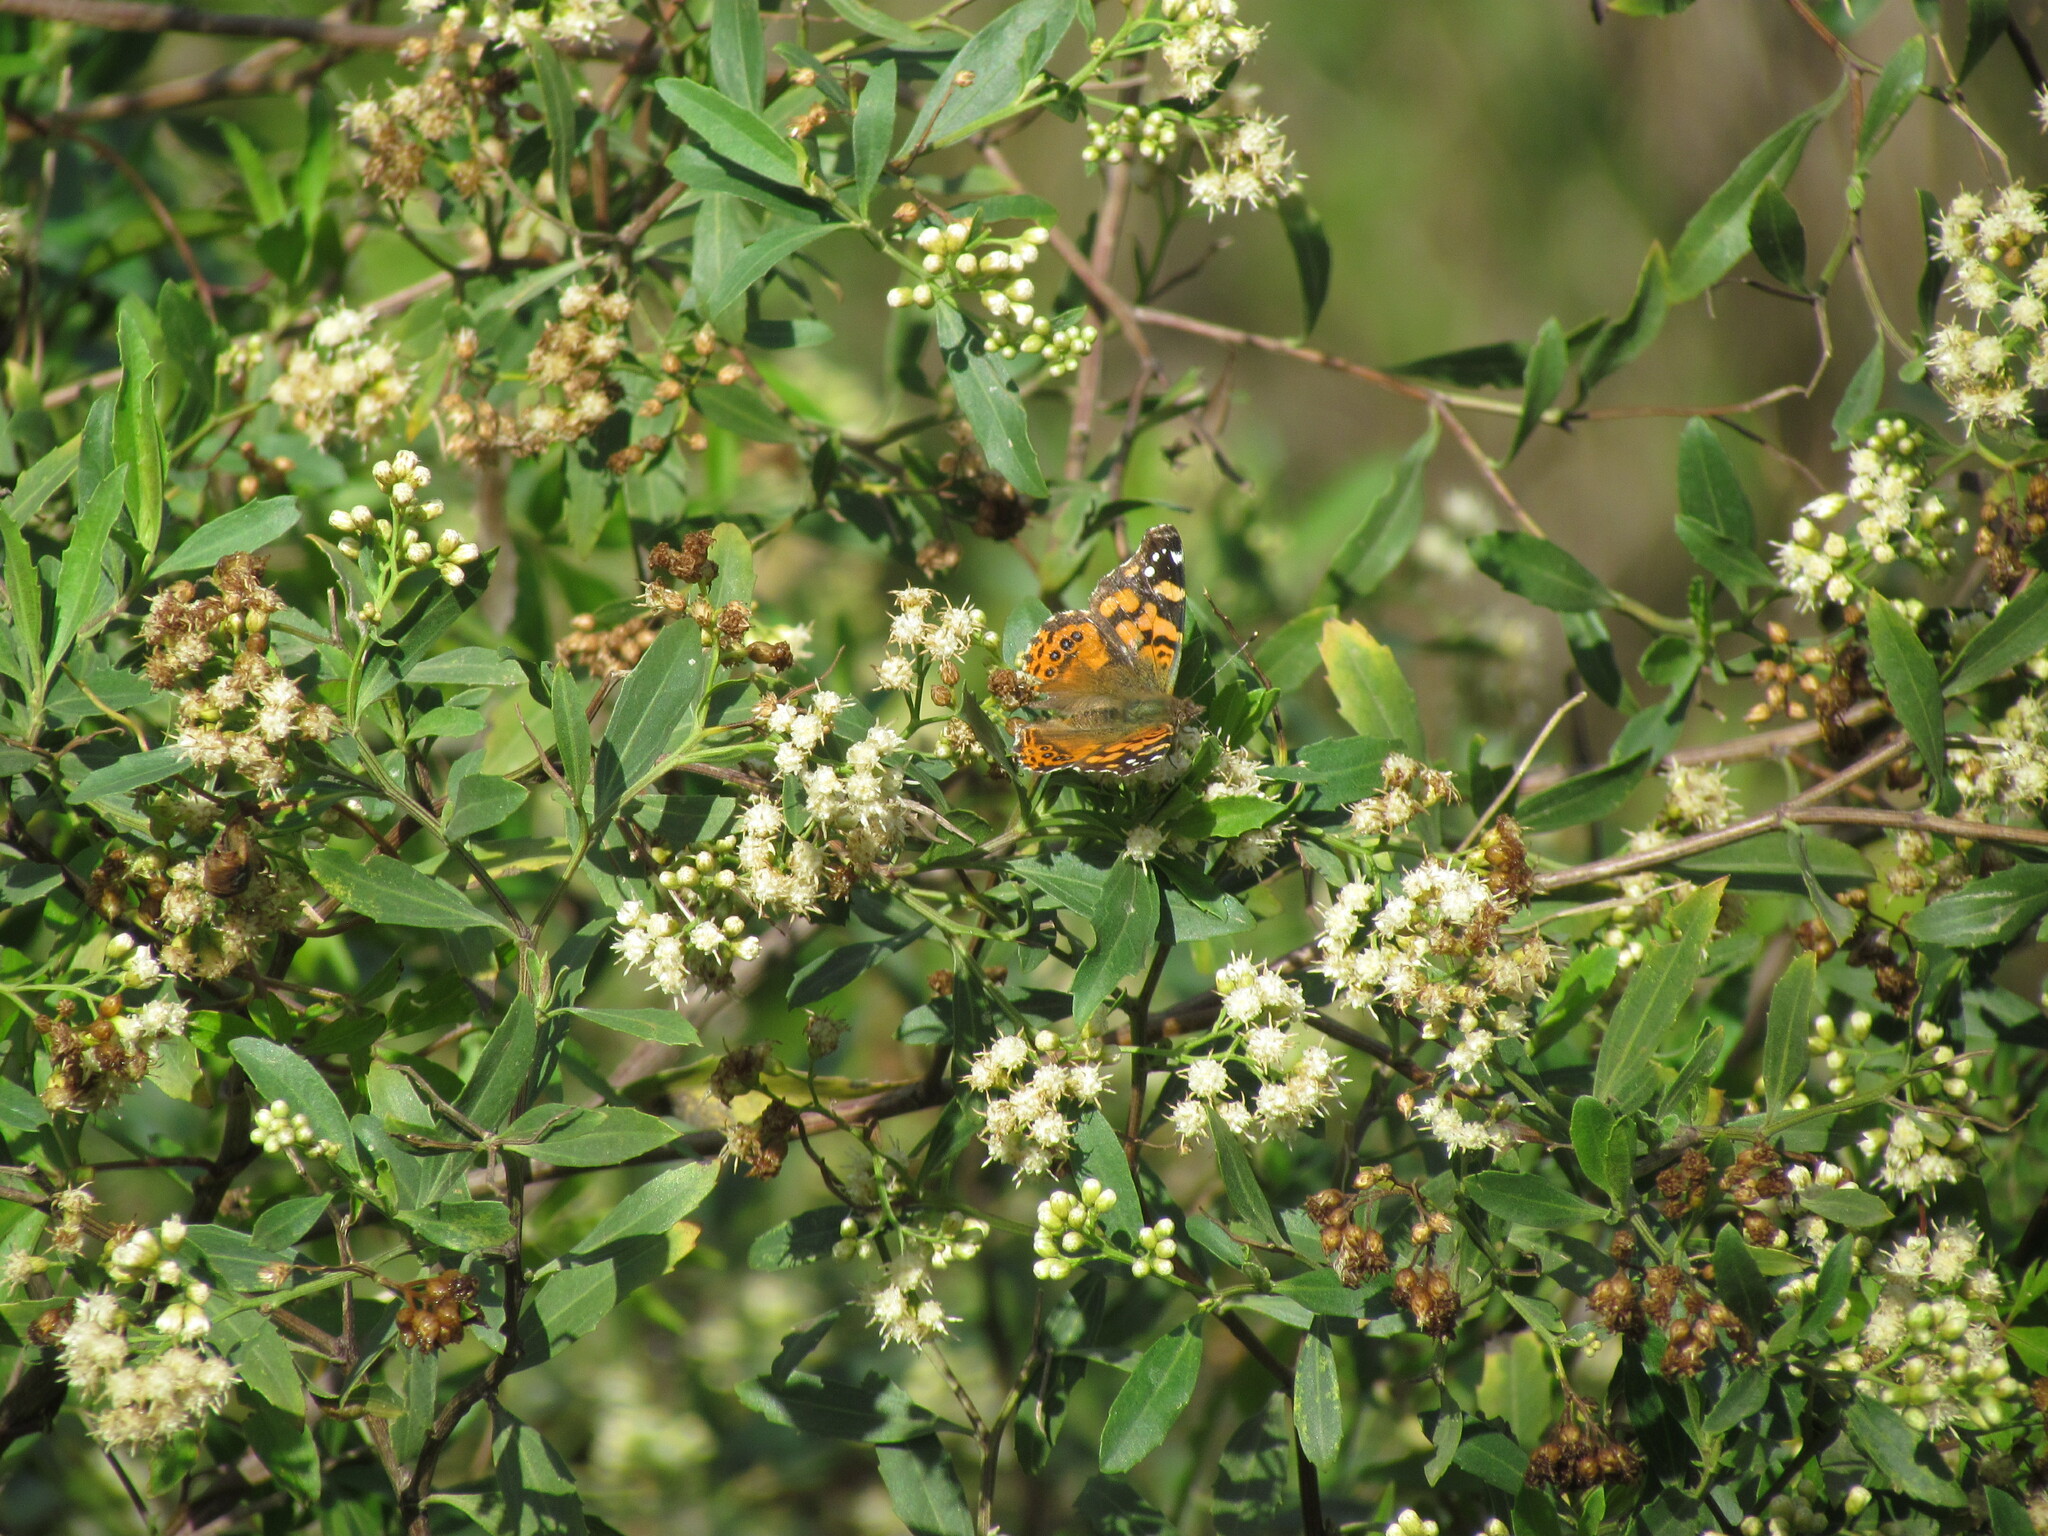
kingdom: Animalia
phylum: Arthropoda
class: Insecta
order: Lepidoptera
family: Nymphalidae
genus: Vanessa
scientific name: Vanessa carye
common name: Subtropical lady
